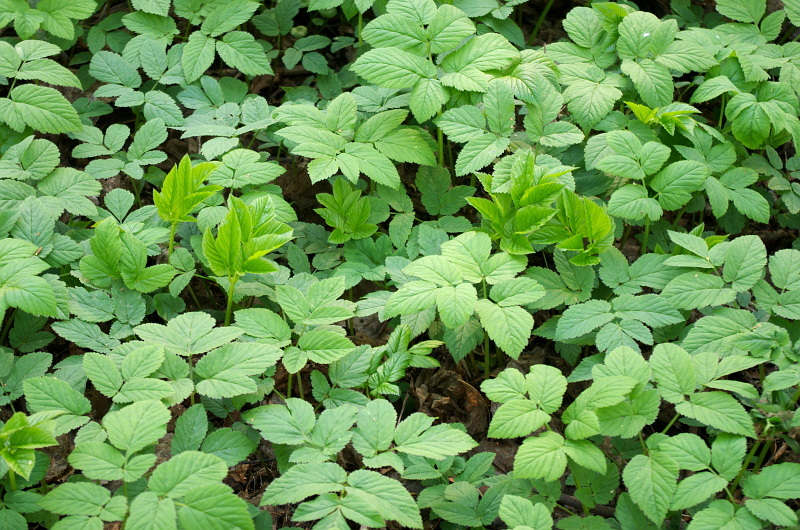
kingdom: Plantae
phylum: Tracheophyta
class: Magnoliopsida
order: Apiales
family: Apiaceae
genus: Aegopodium
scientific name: Aegopodium podagraria
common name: Ground-elder
